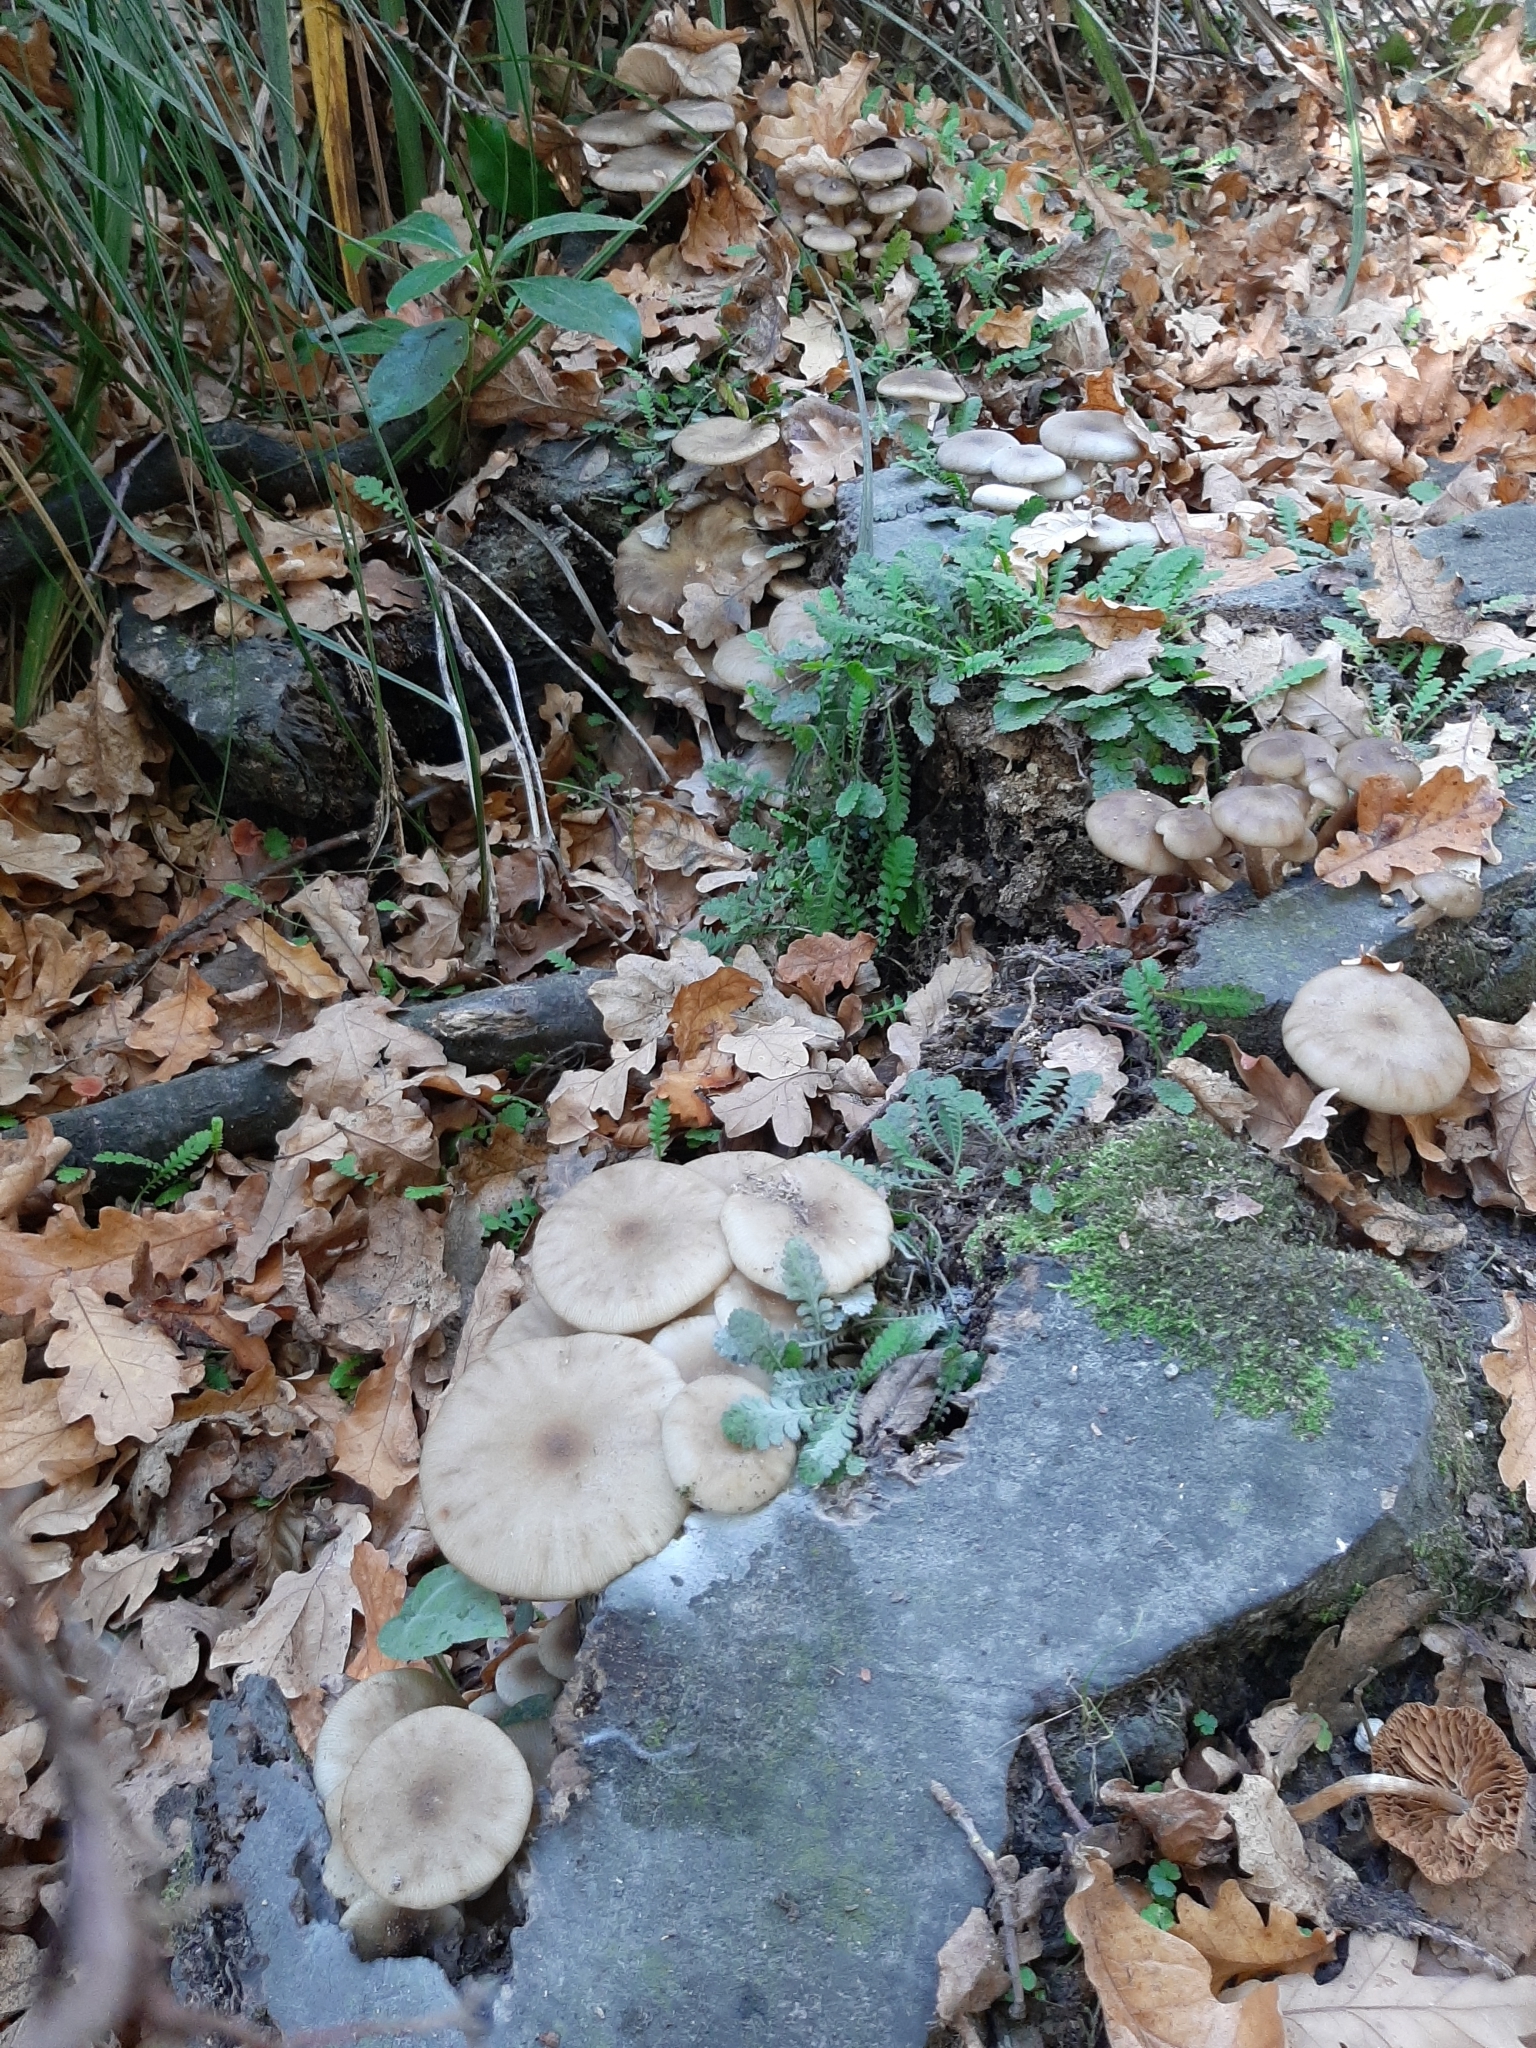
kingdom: Fungi
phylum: Basidiomycota
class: Agaricomycetes
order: Agaricales
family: Physalacriaceae
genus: Armillaria
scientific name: Armillaria novae-zelandiae
